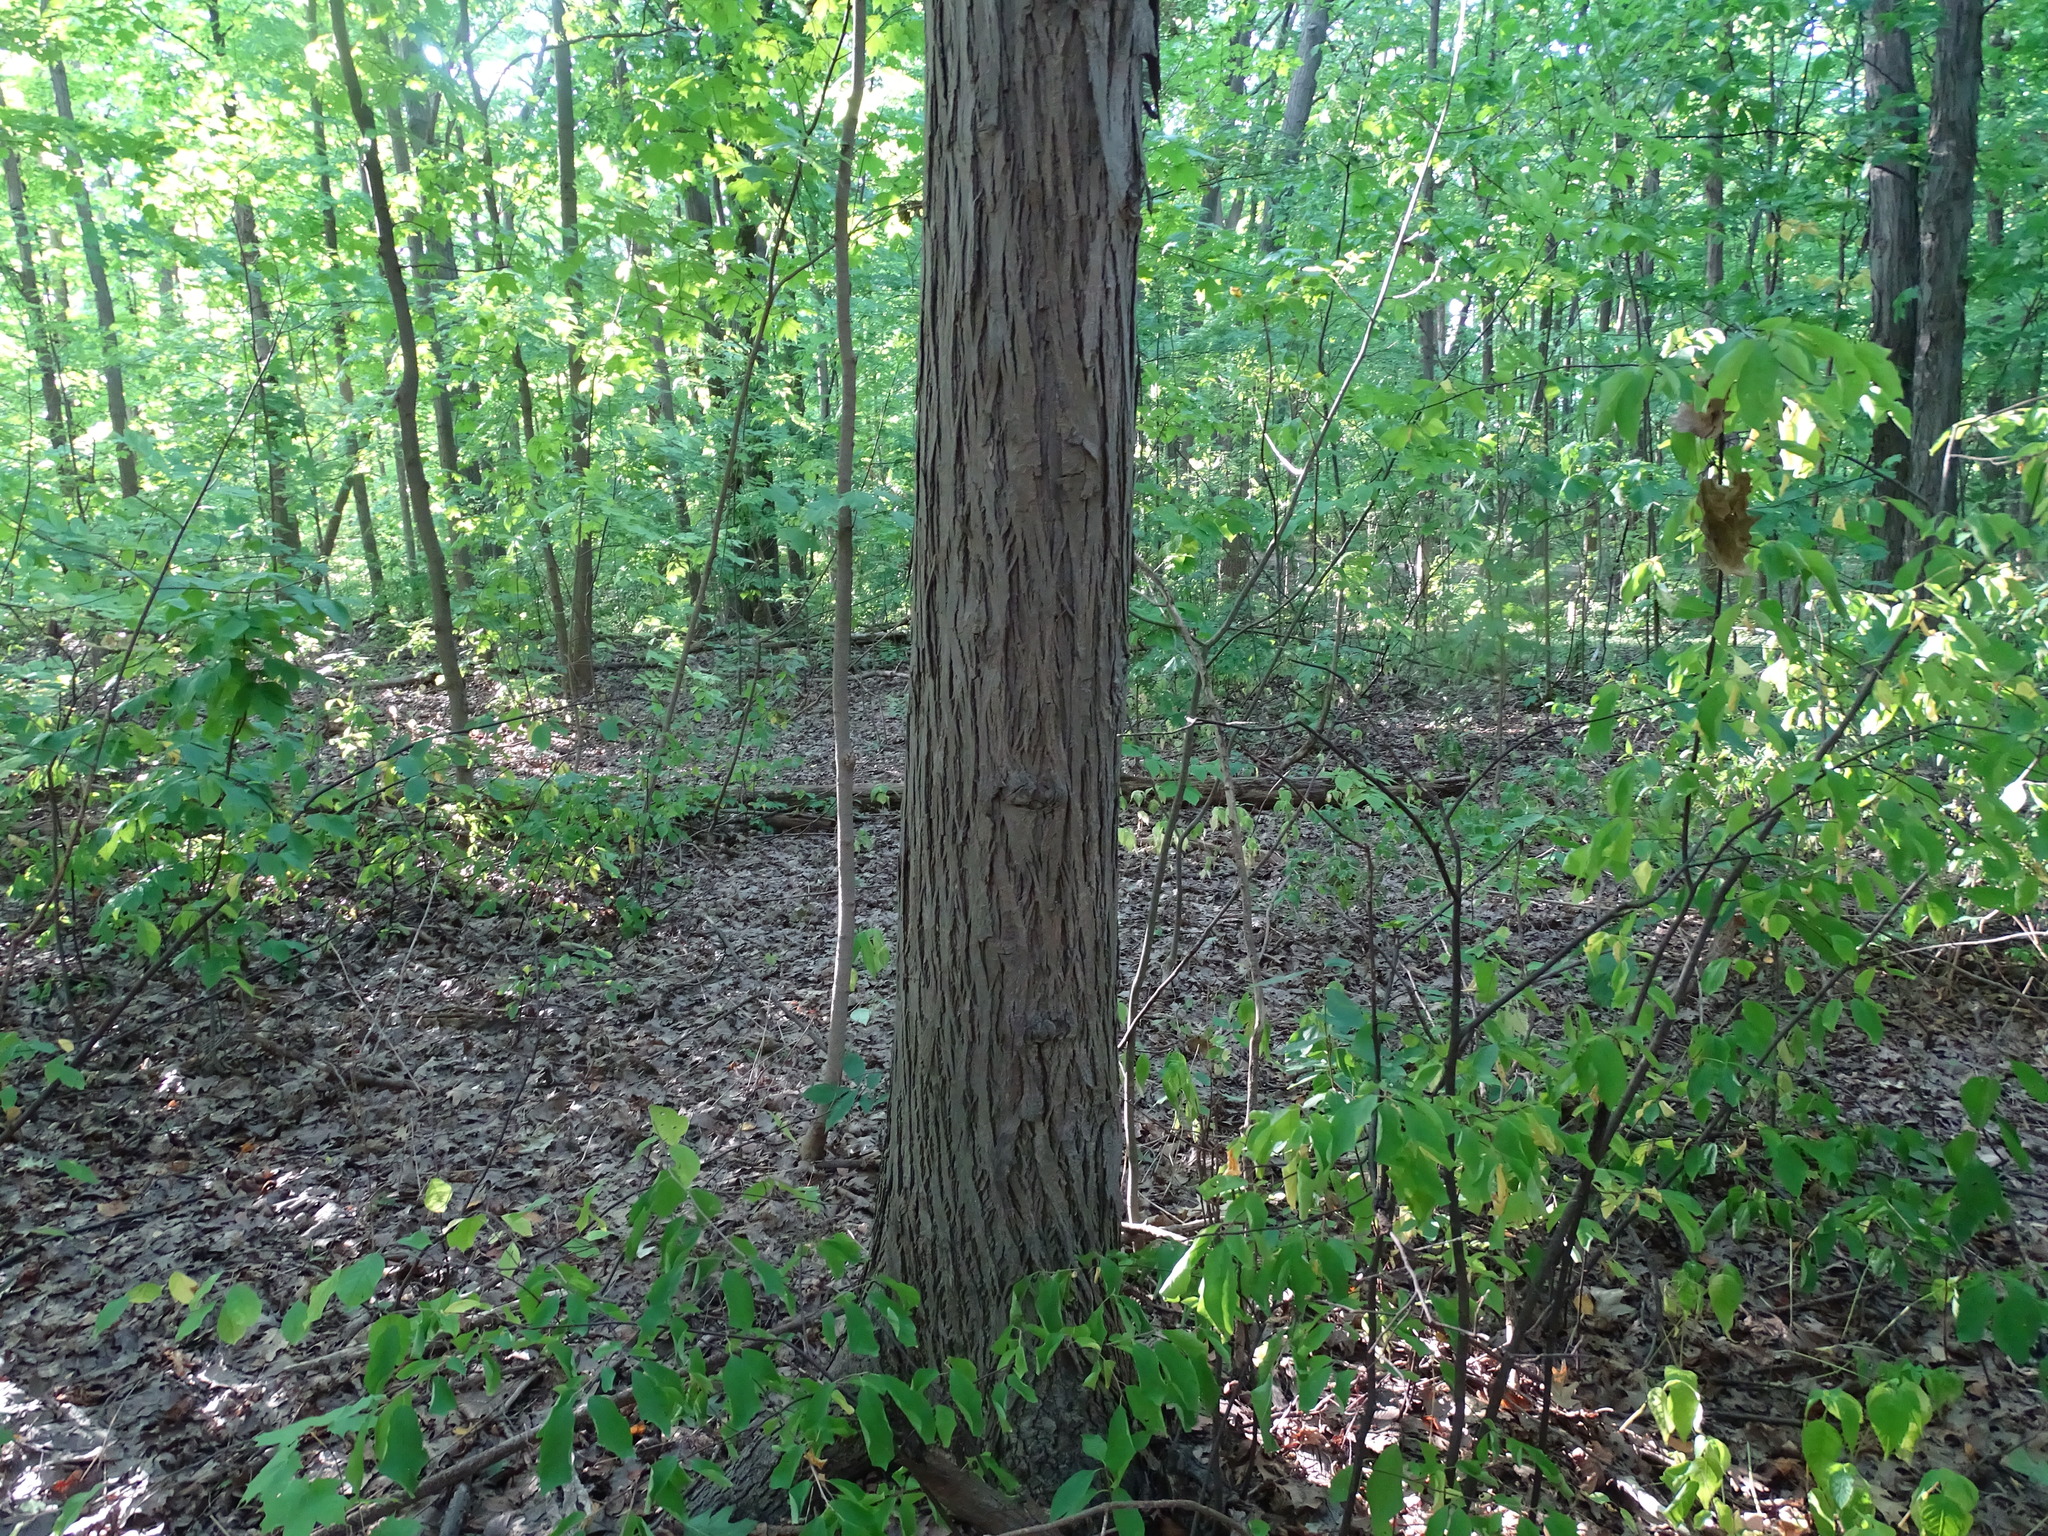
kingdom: Plantae
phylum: Tracheophyta
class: Magnoliopsida
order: Fagales
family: Juglandaceae
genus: Carya
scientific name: Carya ovata
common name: Shagbark hickory
